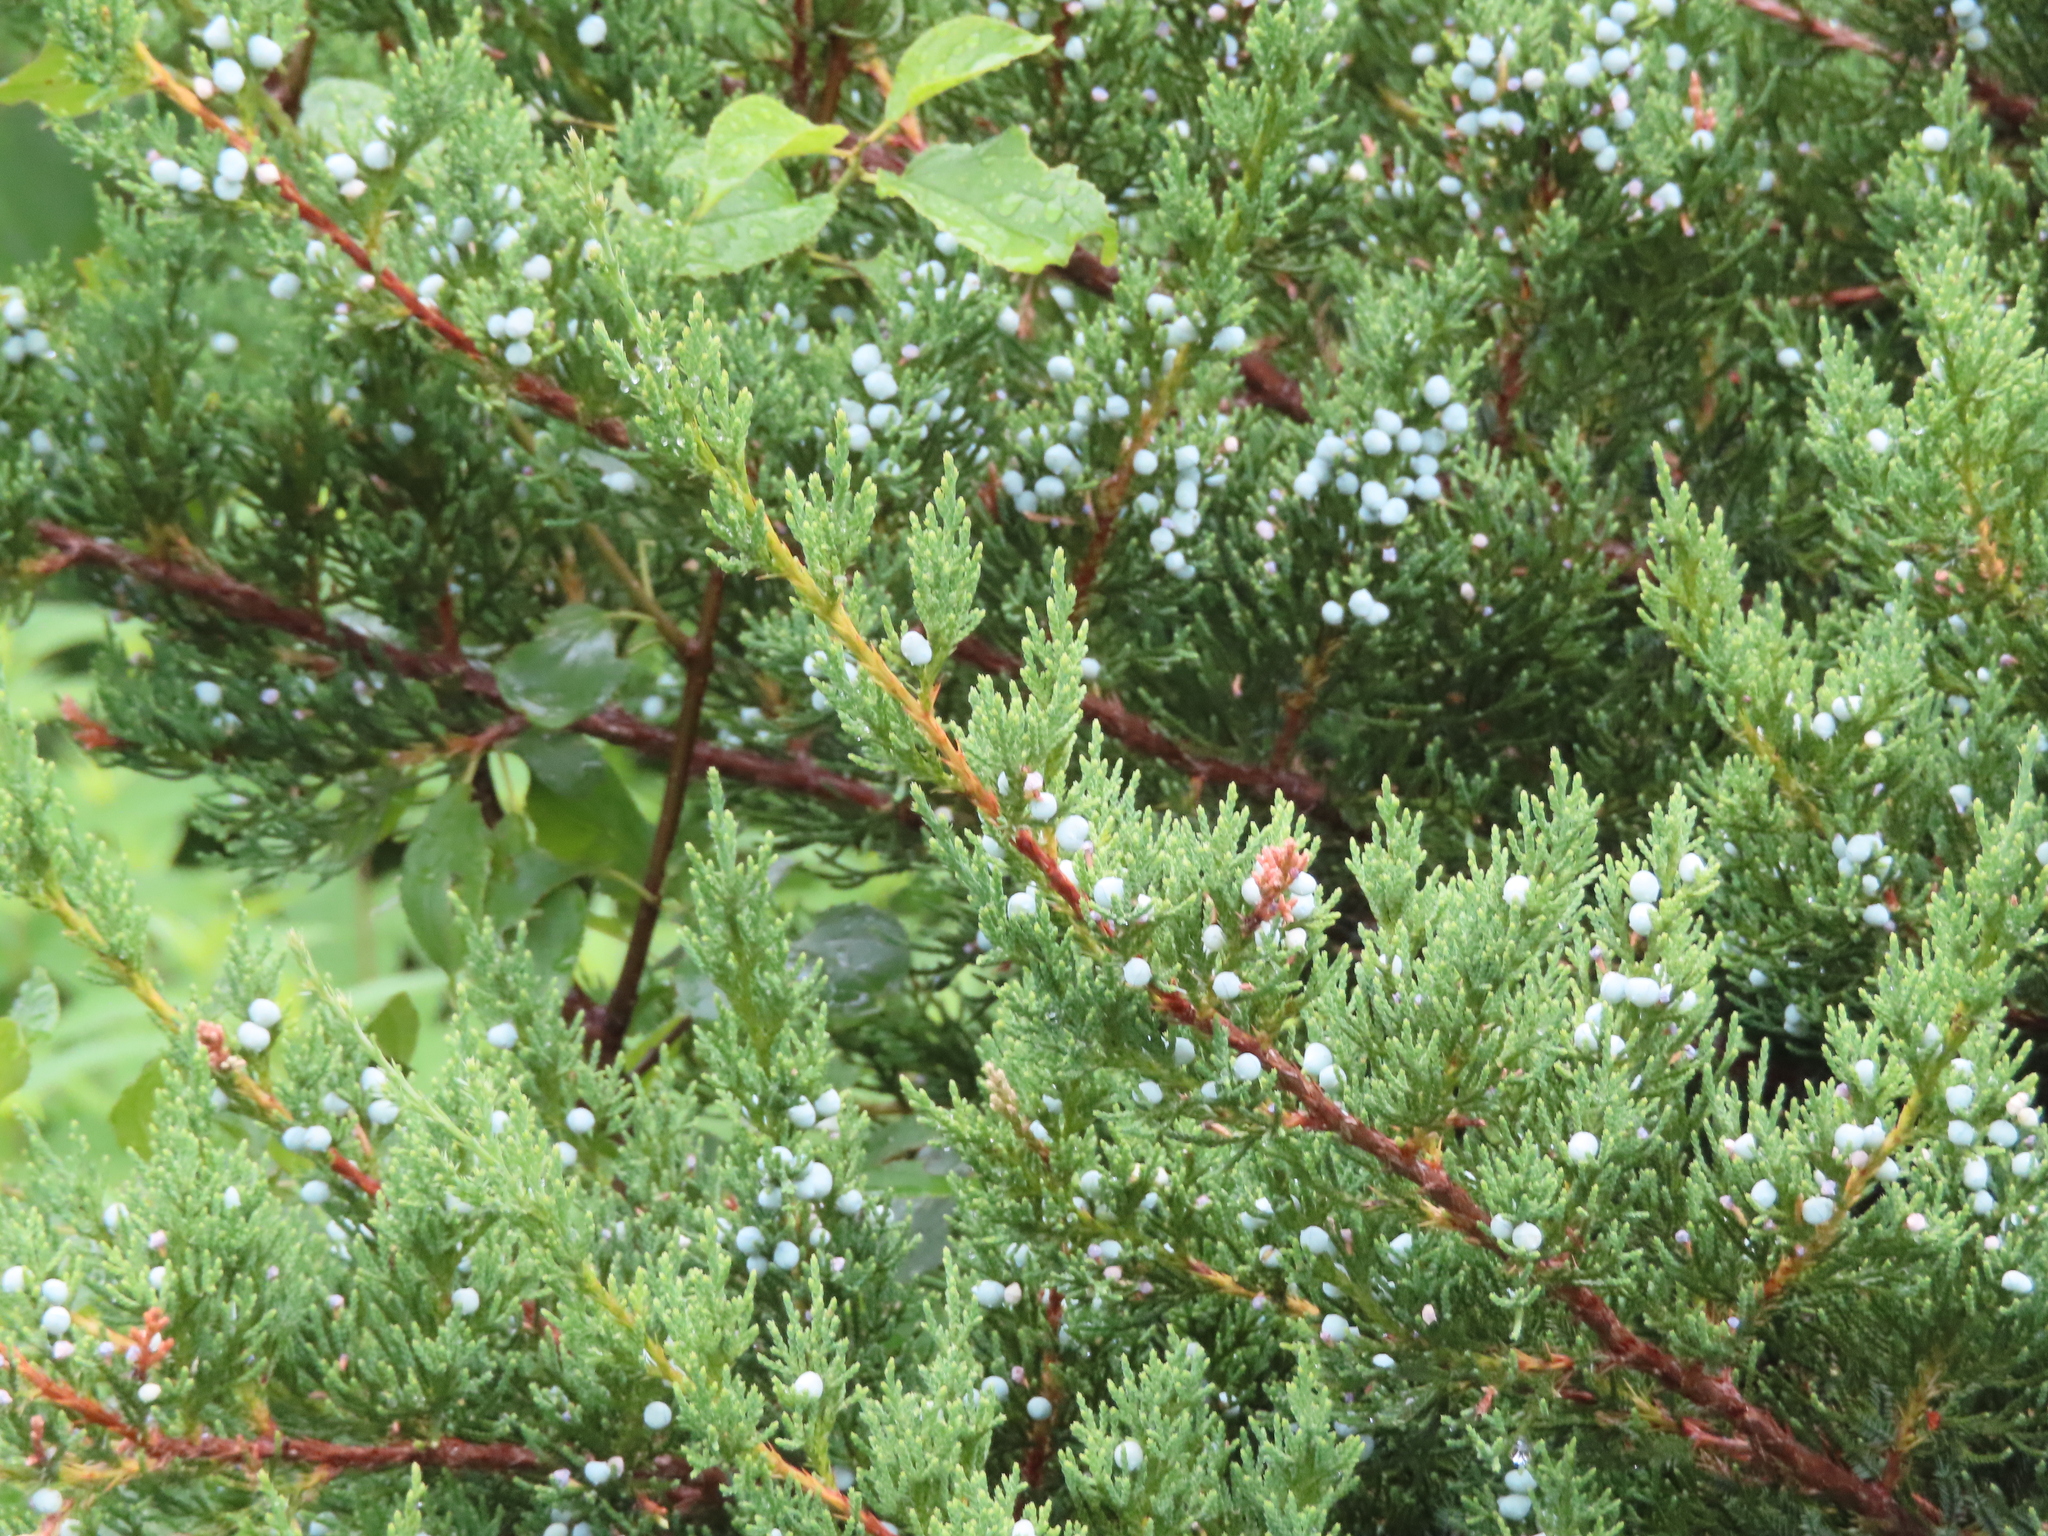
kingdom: Plantae
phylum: Tracheophyta
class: Pinopsida
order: Pinales
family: Cupressaceae
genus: Juniperus
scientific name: Juniperus virginiana
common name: Red juniper
